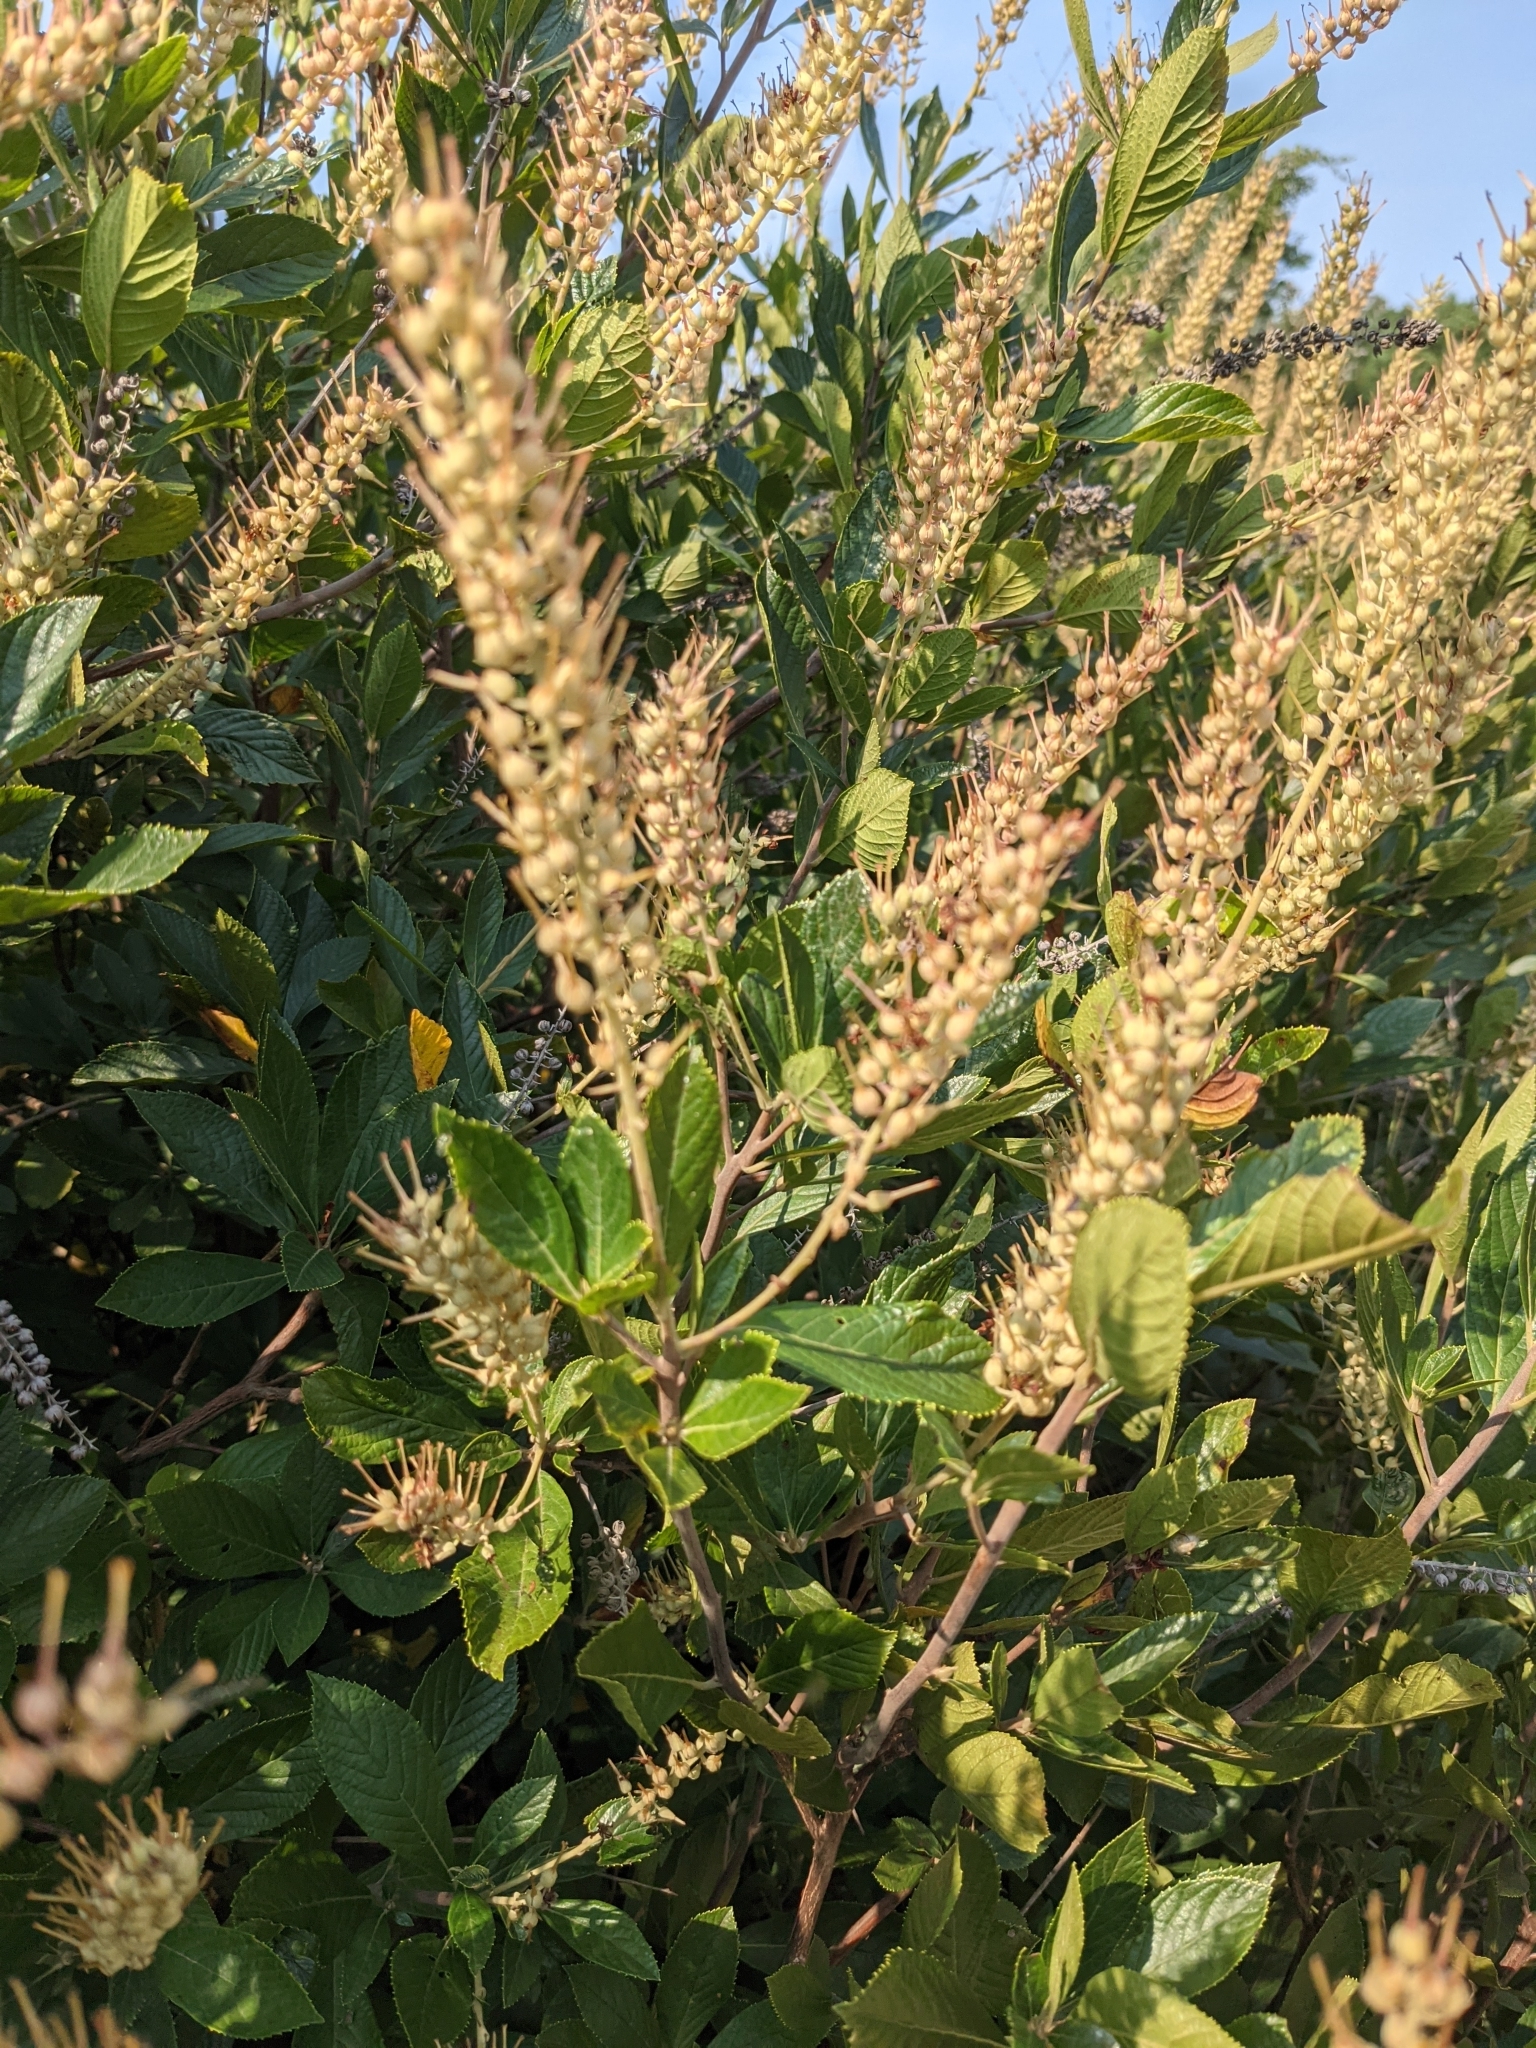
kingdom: Plantae
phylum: Tracheophyta
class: Magnoliopsida
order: Ericales
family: Clethraceae
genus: Clethra
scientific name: Clethra alnifolia
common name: Sweet pepperbush
